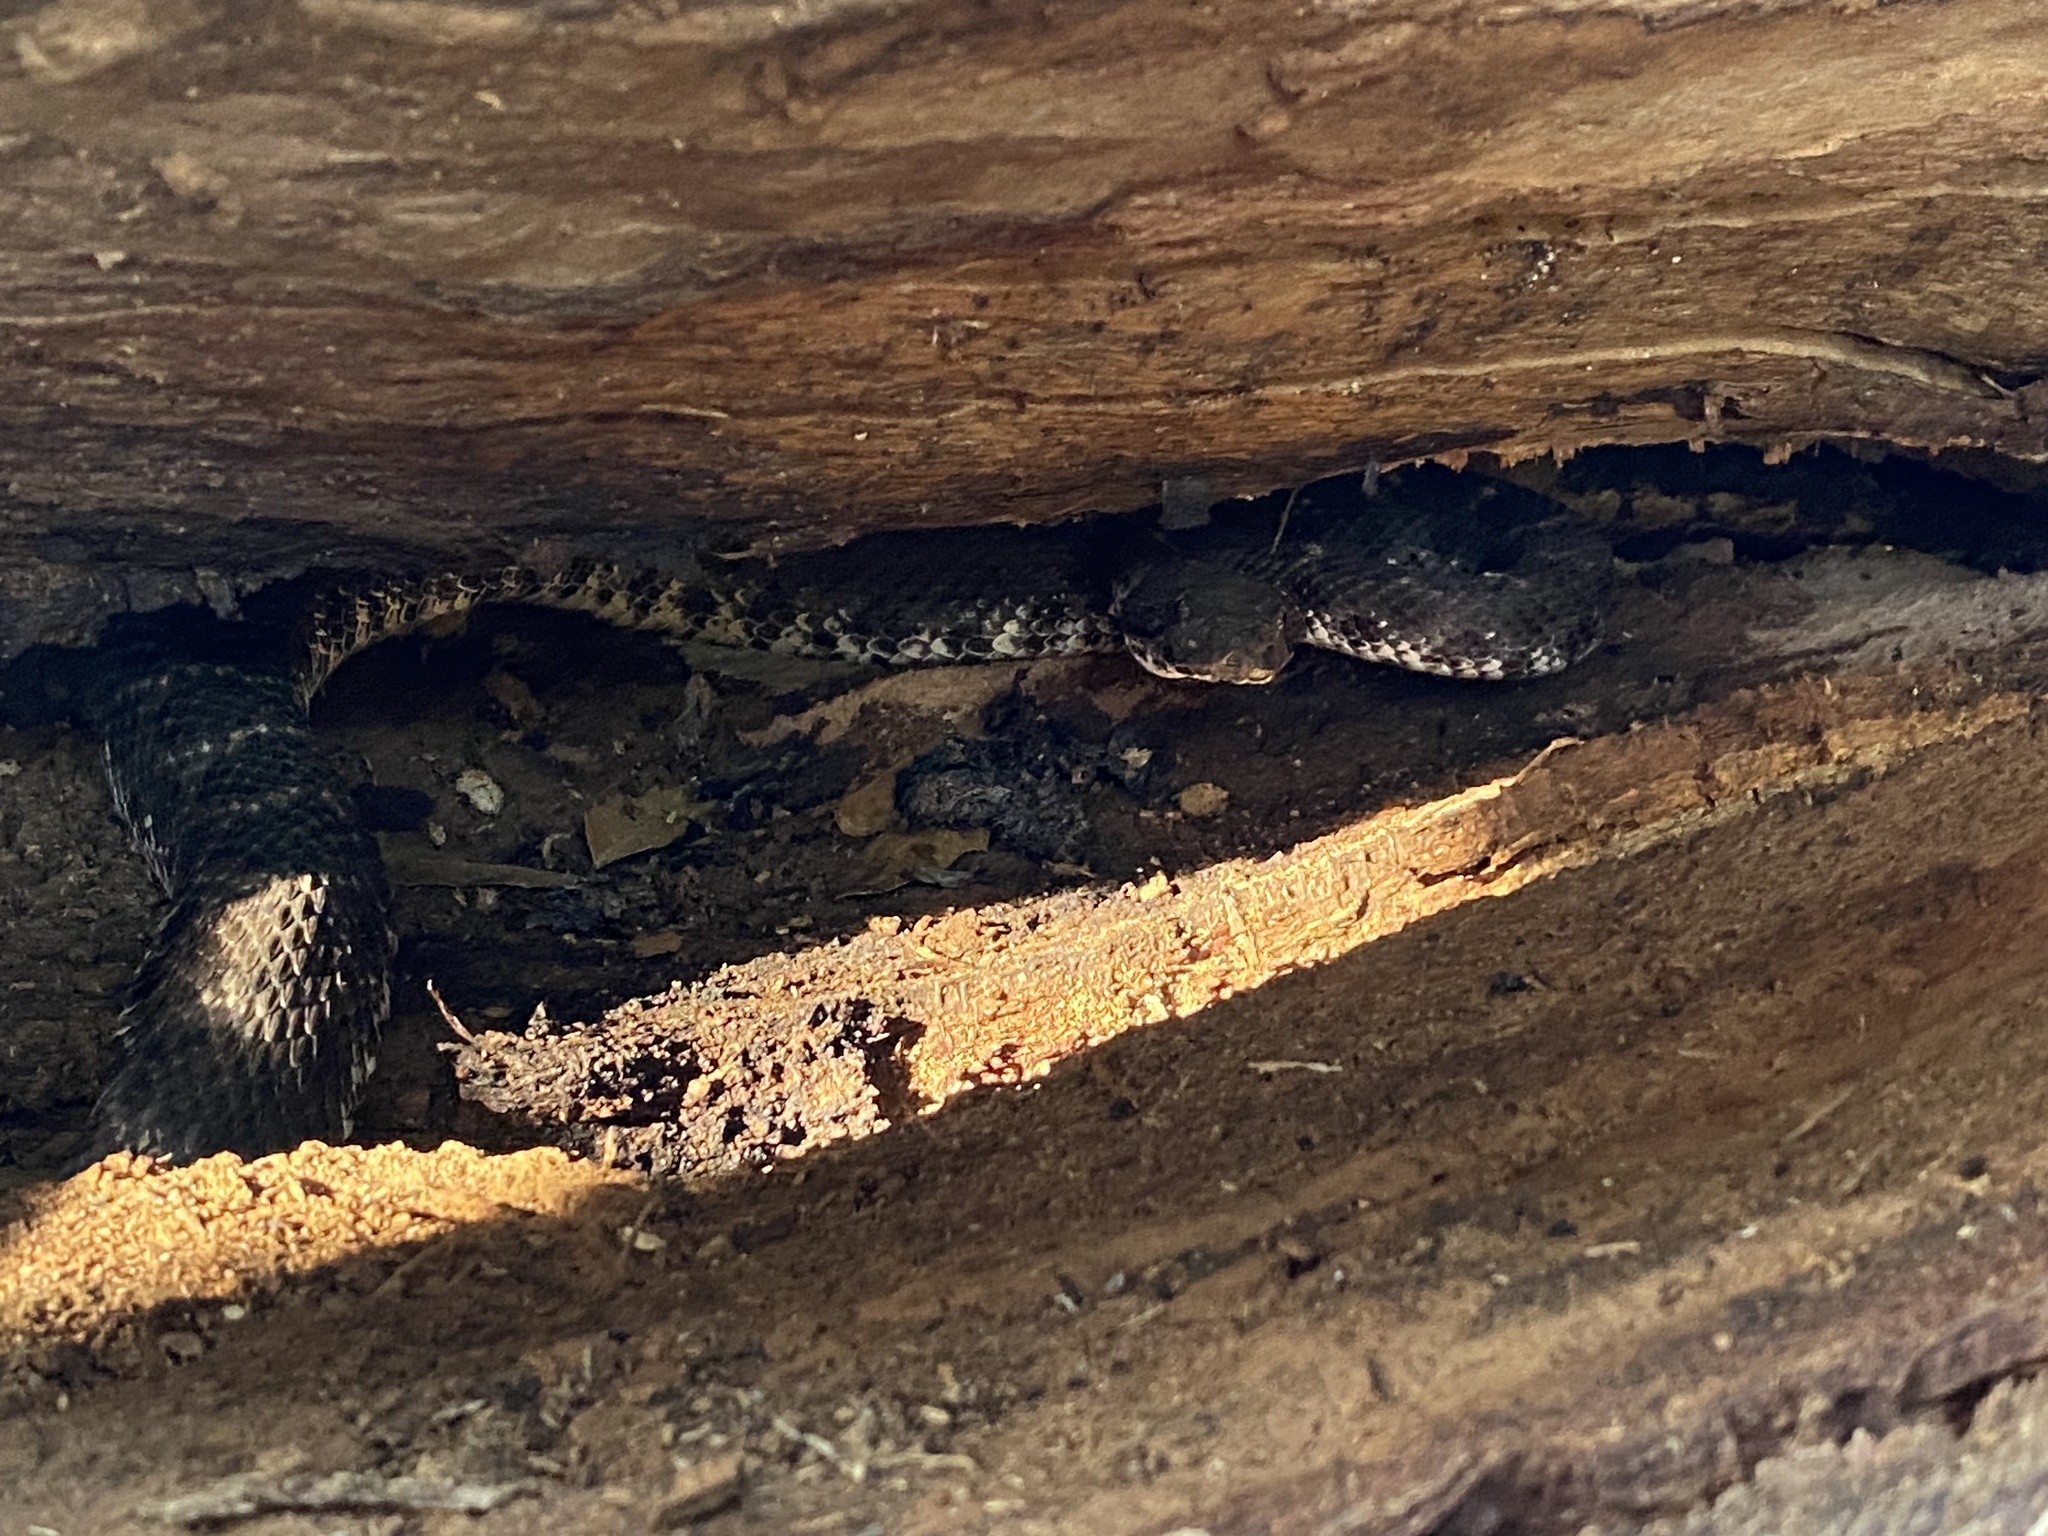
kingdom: Animalia
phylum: Chordata
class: Squamata
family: Viperidae
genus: Crotalus
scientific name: Crotalus cerberus
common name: Arizona black rattlesnake
